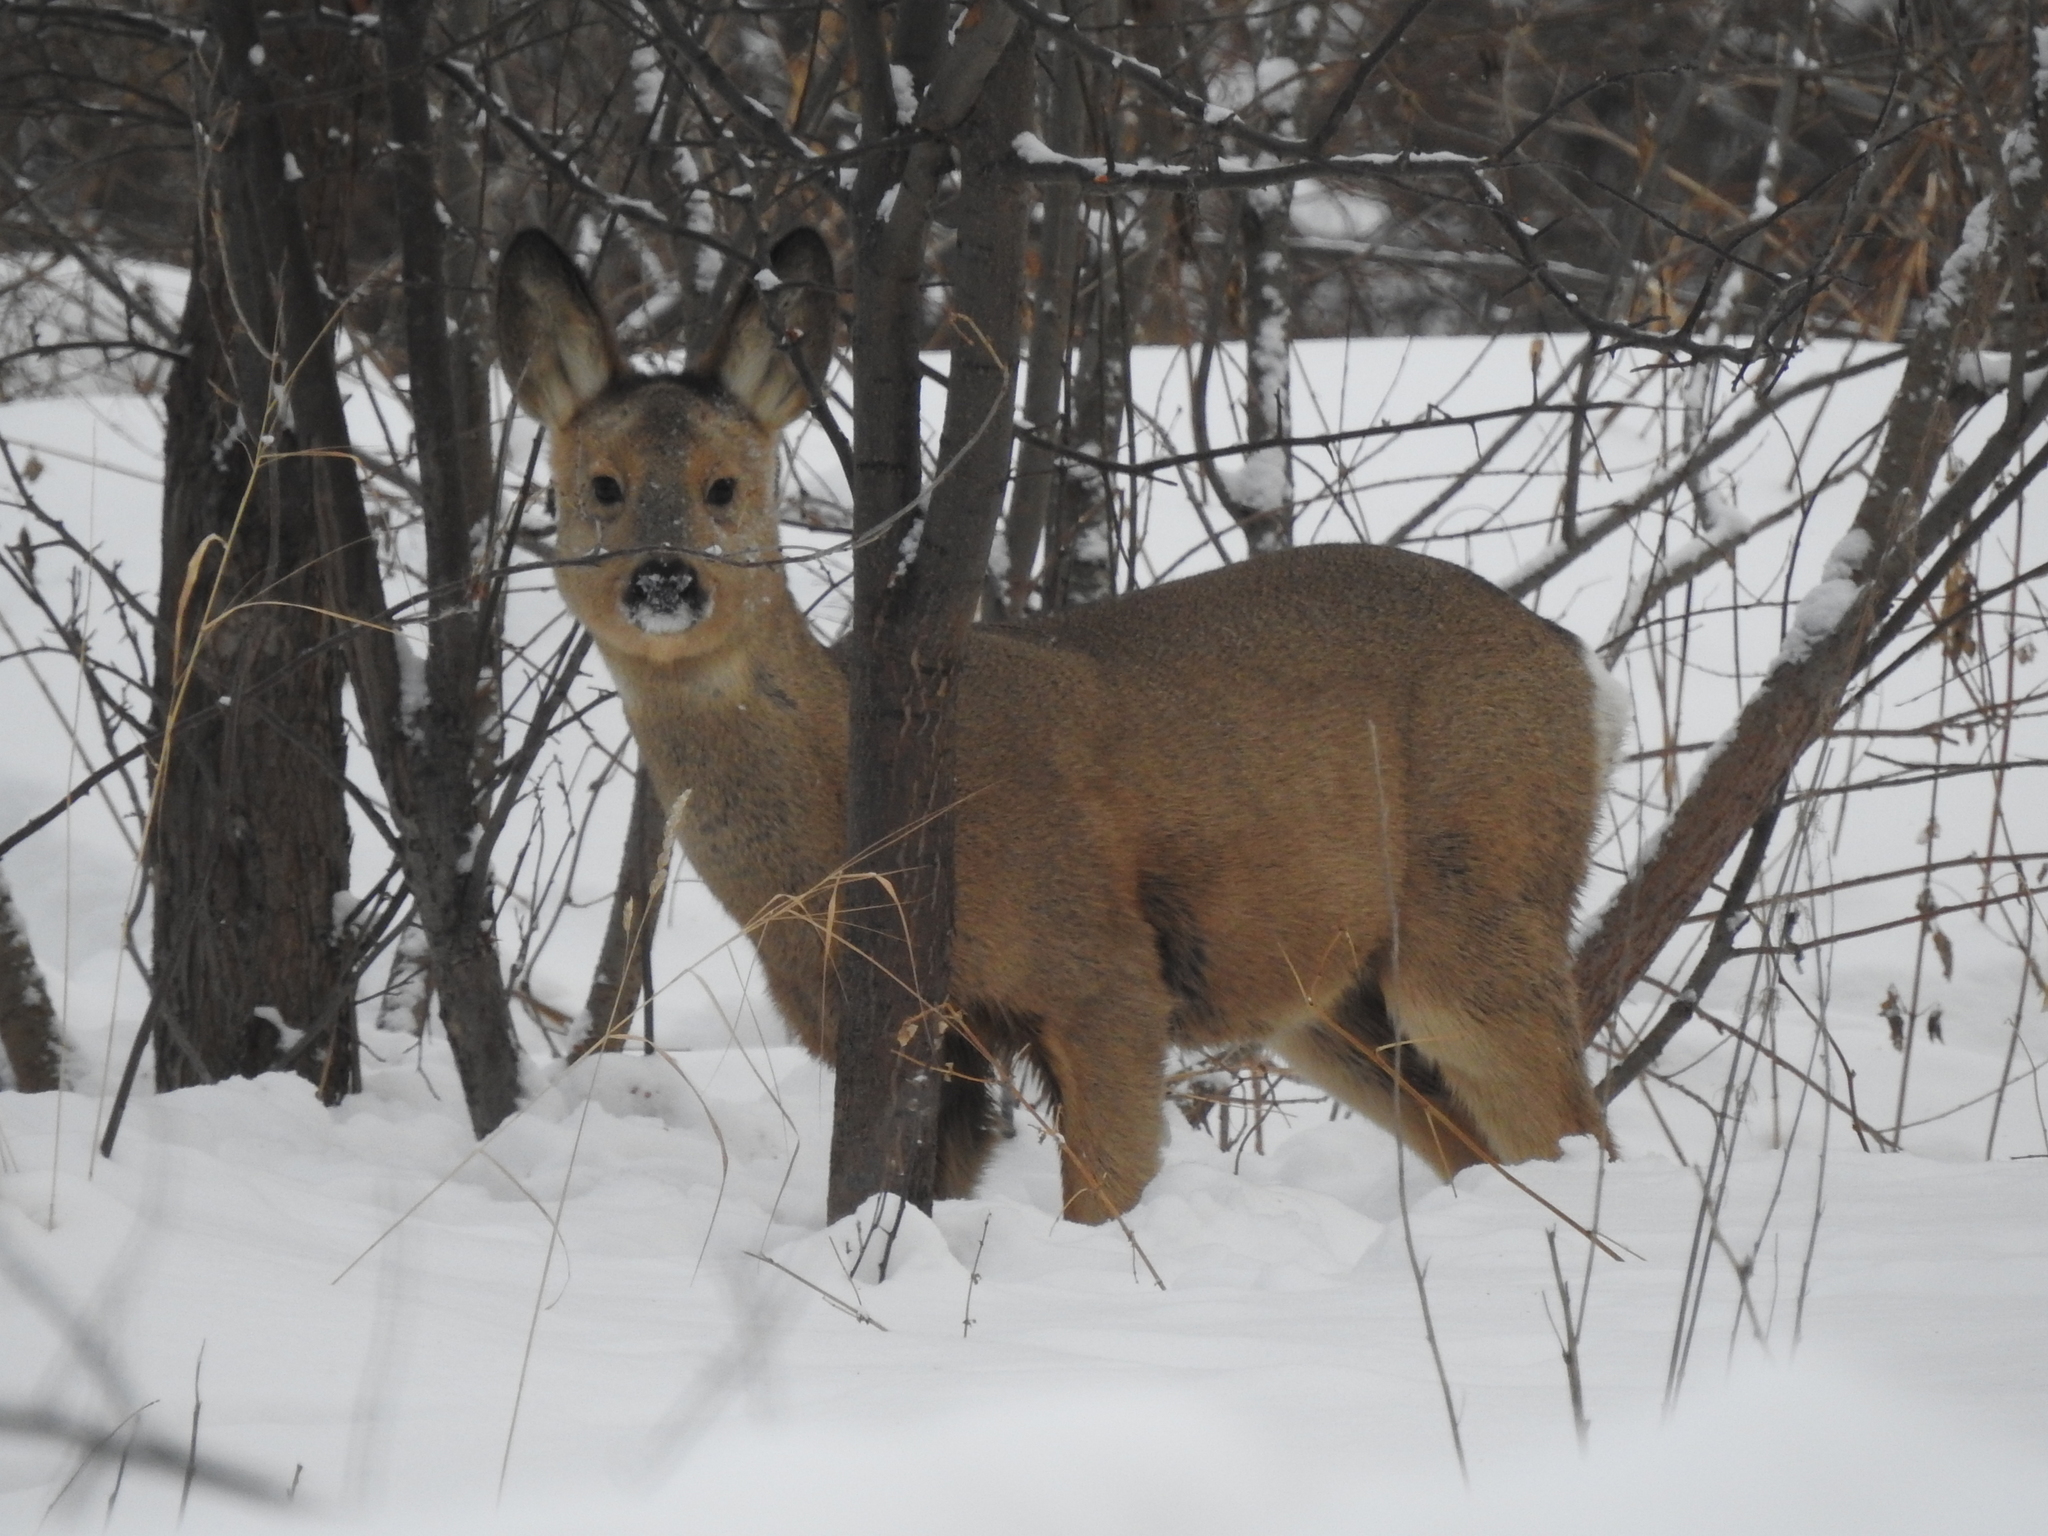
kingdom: Animalia
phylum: Chordata
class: Mammalia
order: Artiodactyla
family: Cervidae
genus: Capreolus
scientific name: Capreolus pygargus
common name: Siberian roe
